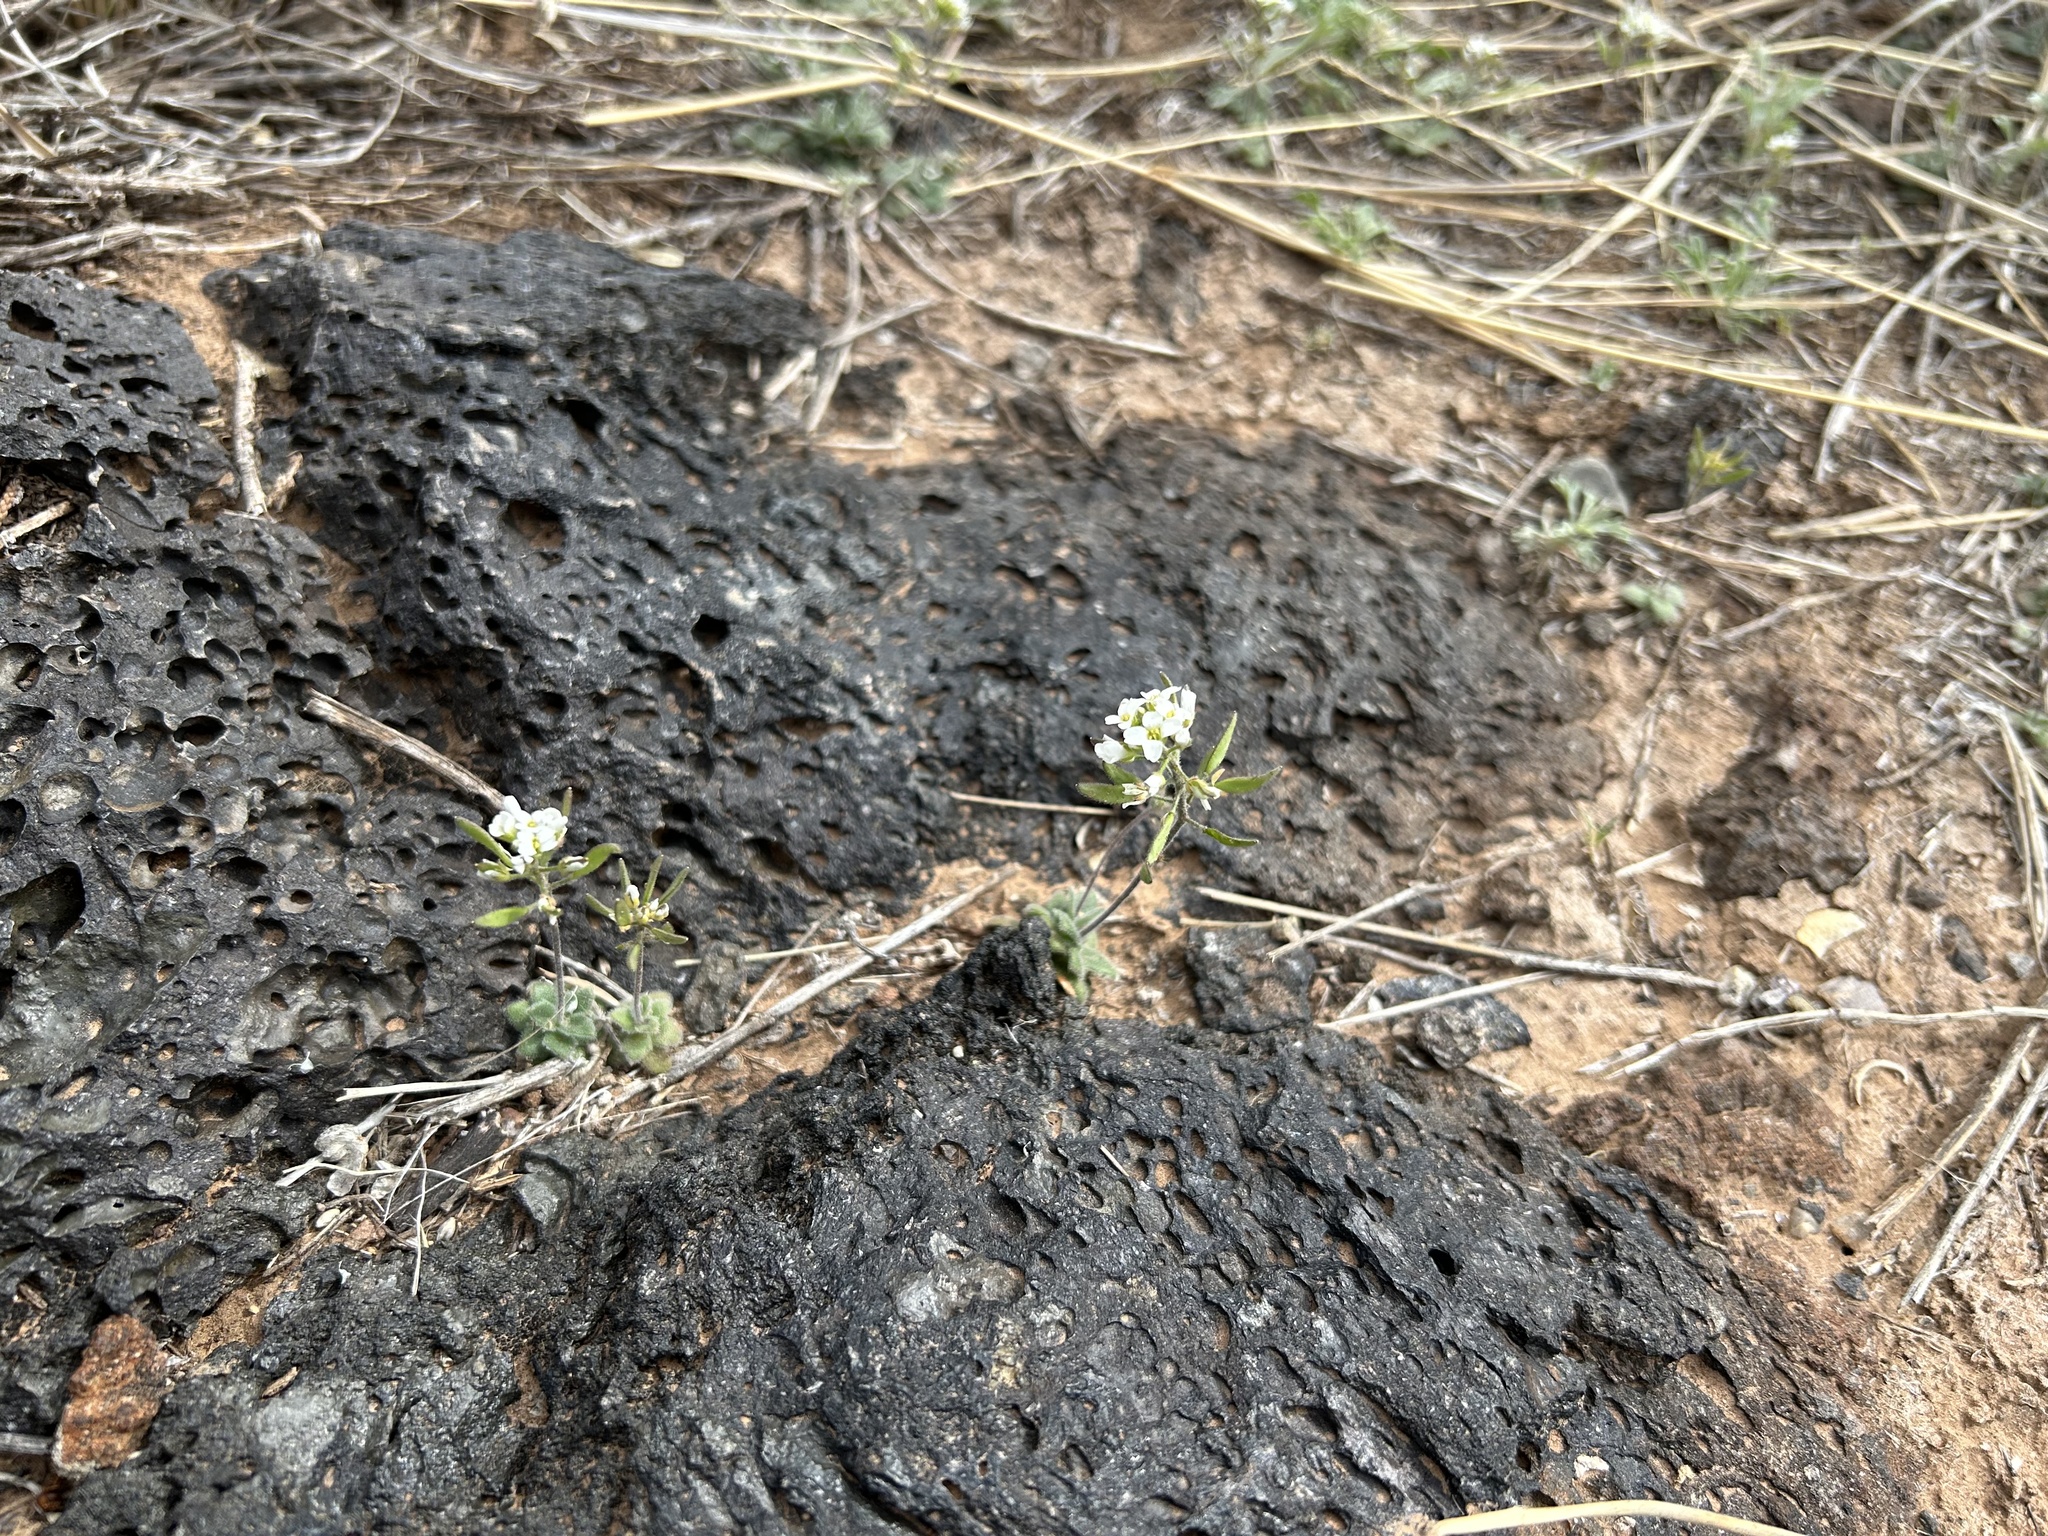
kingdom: Plantae
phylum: Tracheophyta
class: Magnoliopsida
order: Brassicales
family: Brassicaceae
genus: Tomostima
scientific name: Tomostima cuneifolia
